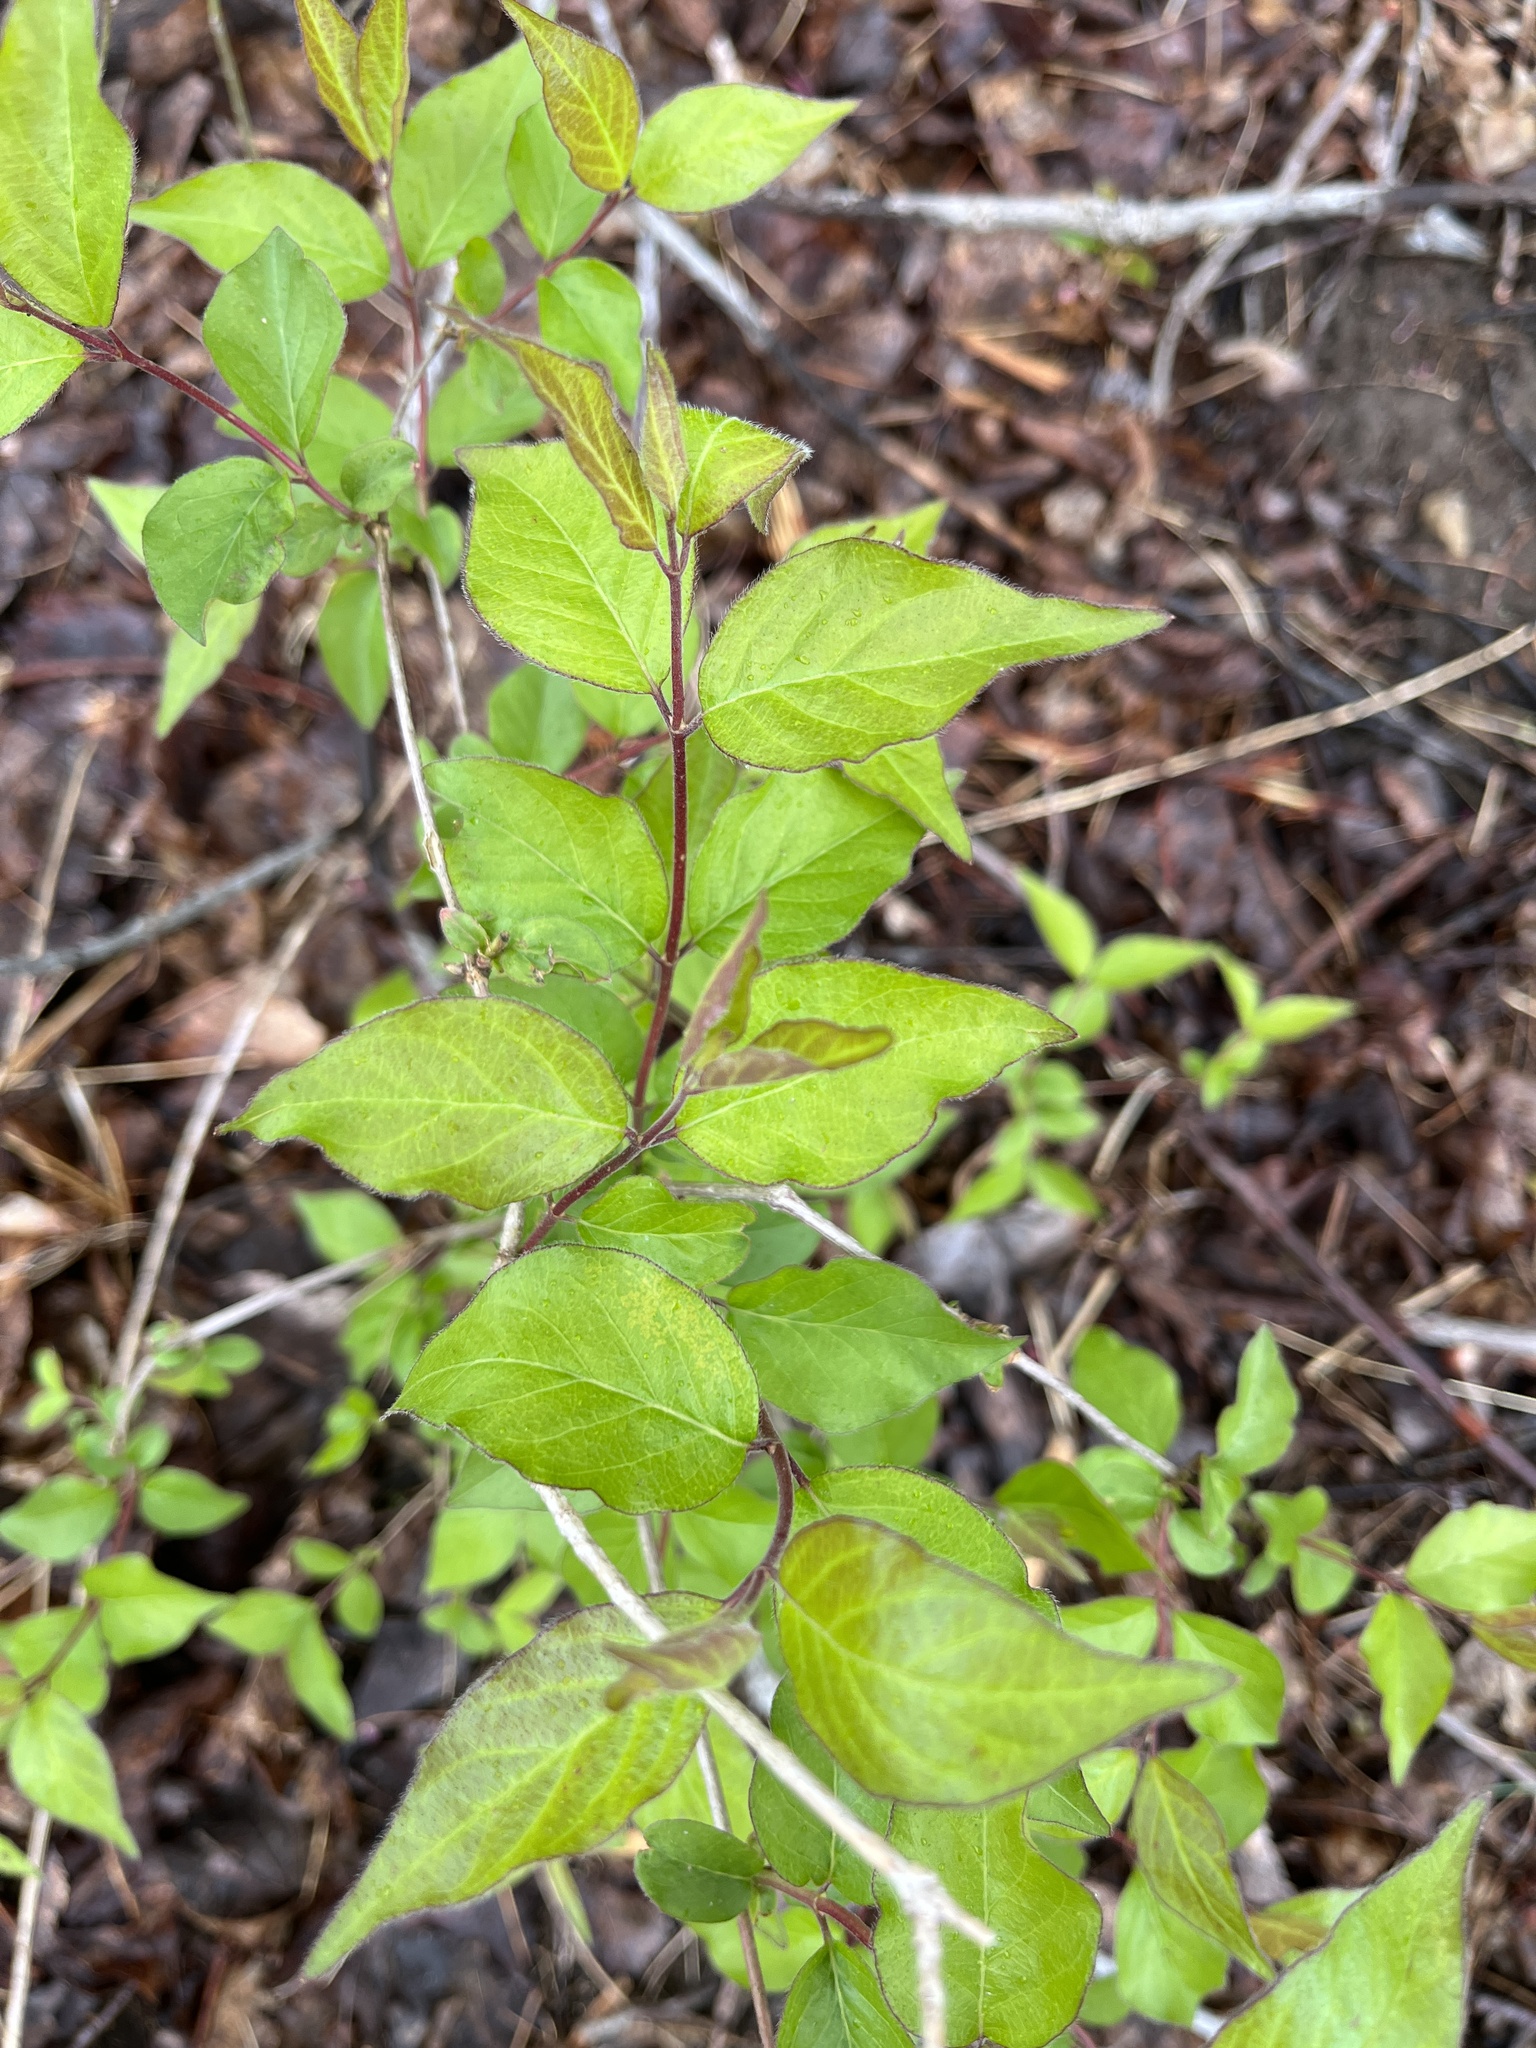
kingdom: Plantae
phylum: Tracheophyta
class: Magnoliopsida
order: Dipsacales
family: Caprifoliaceae
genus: Lonicera
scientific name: Lonicera maackii
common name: Amur honeysuckle
